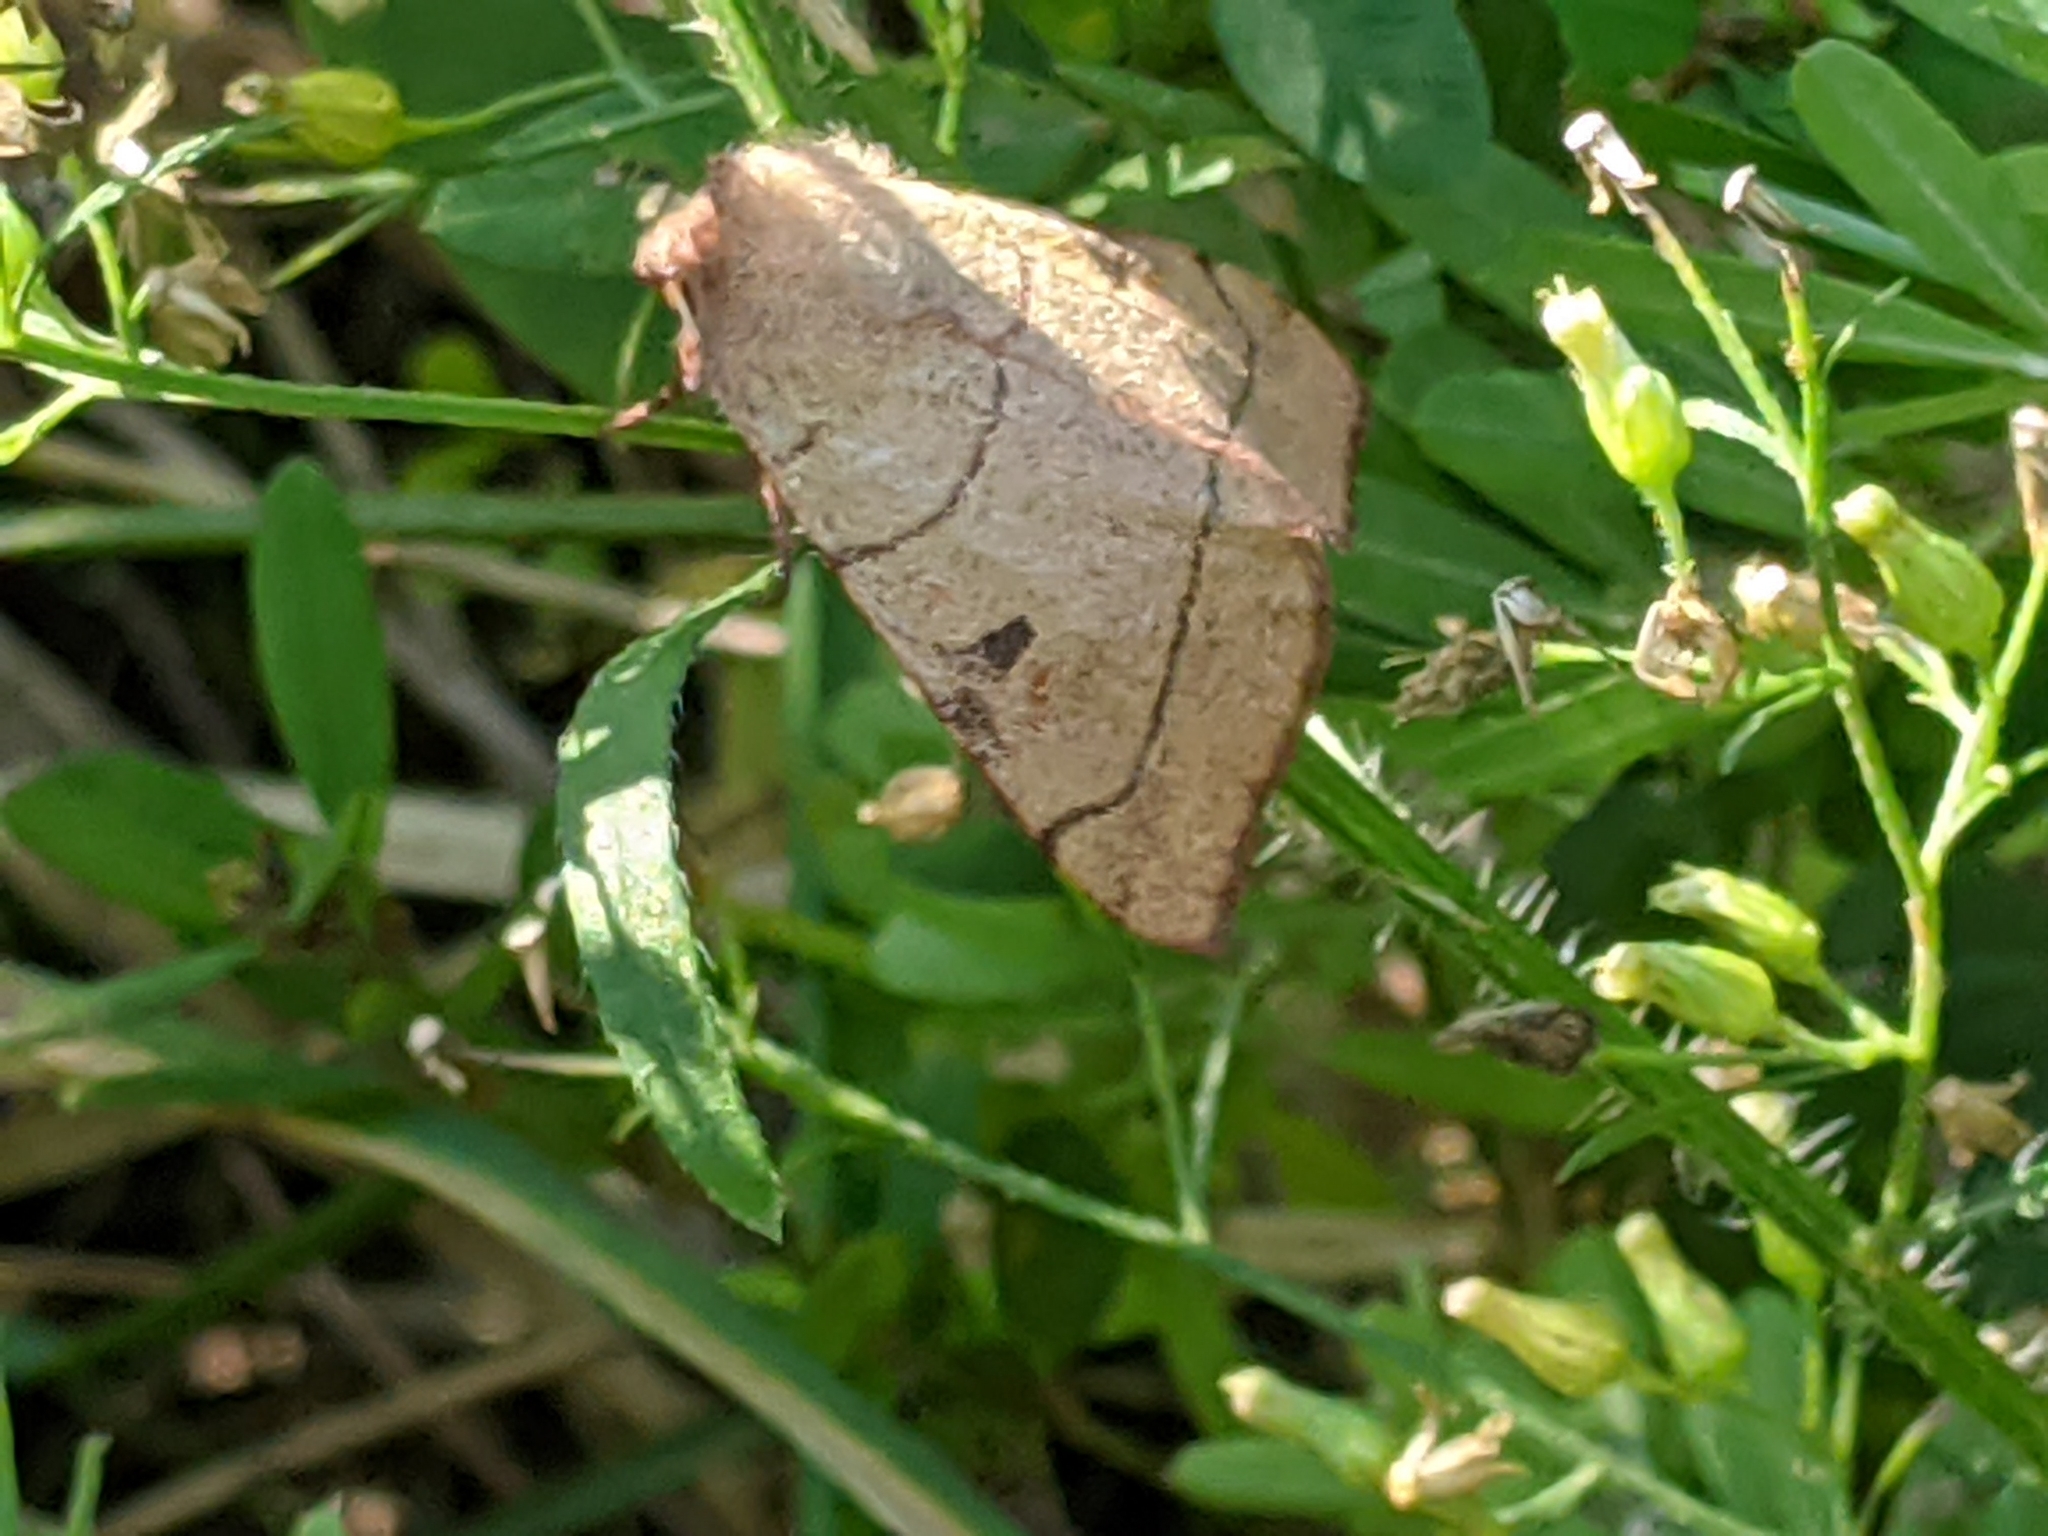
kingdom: Animalia
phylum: Arthropoda
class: Insecta
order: Lepidoptera
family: Noctuidae
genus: Choephora
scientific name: Choephora fungorum
